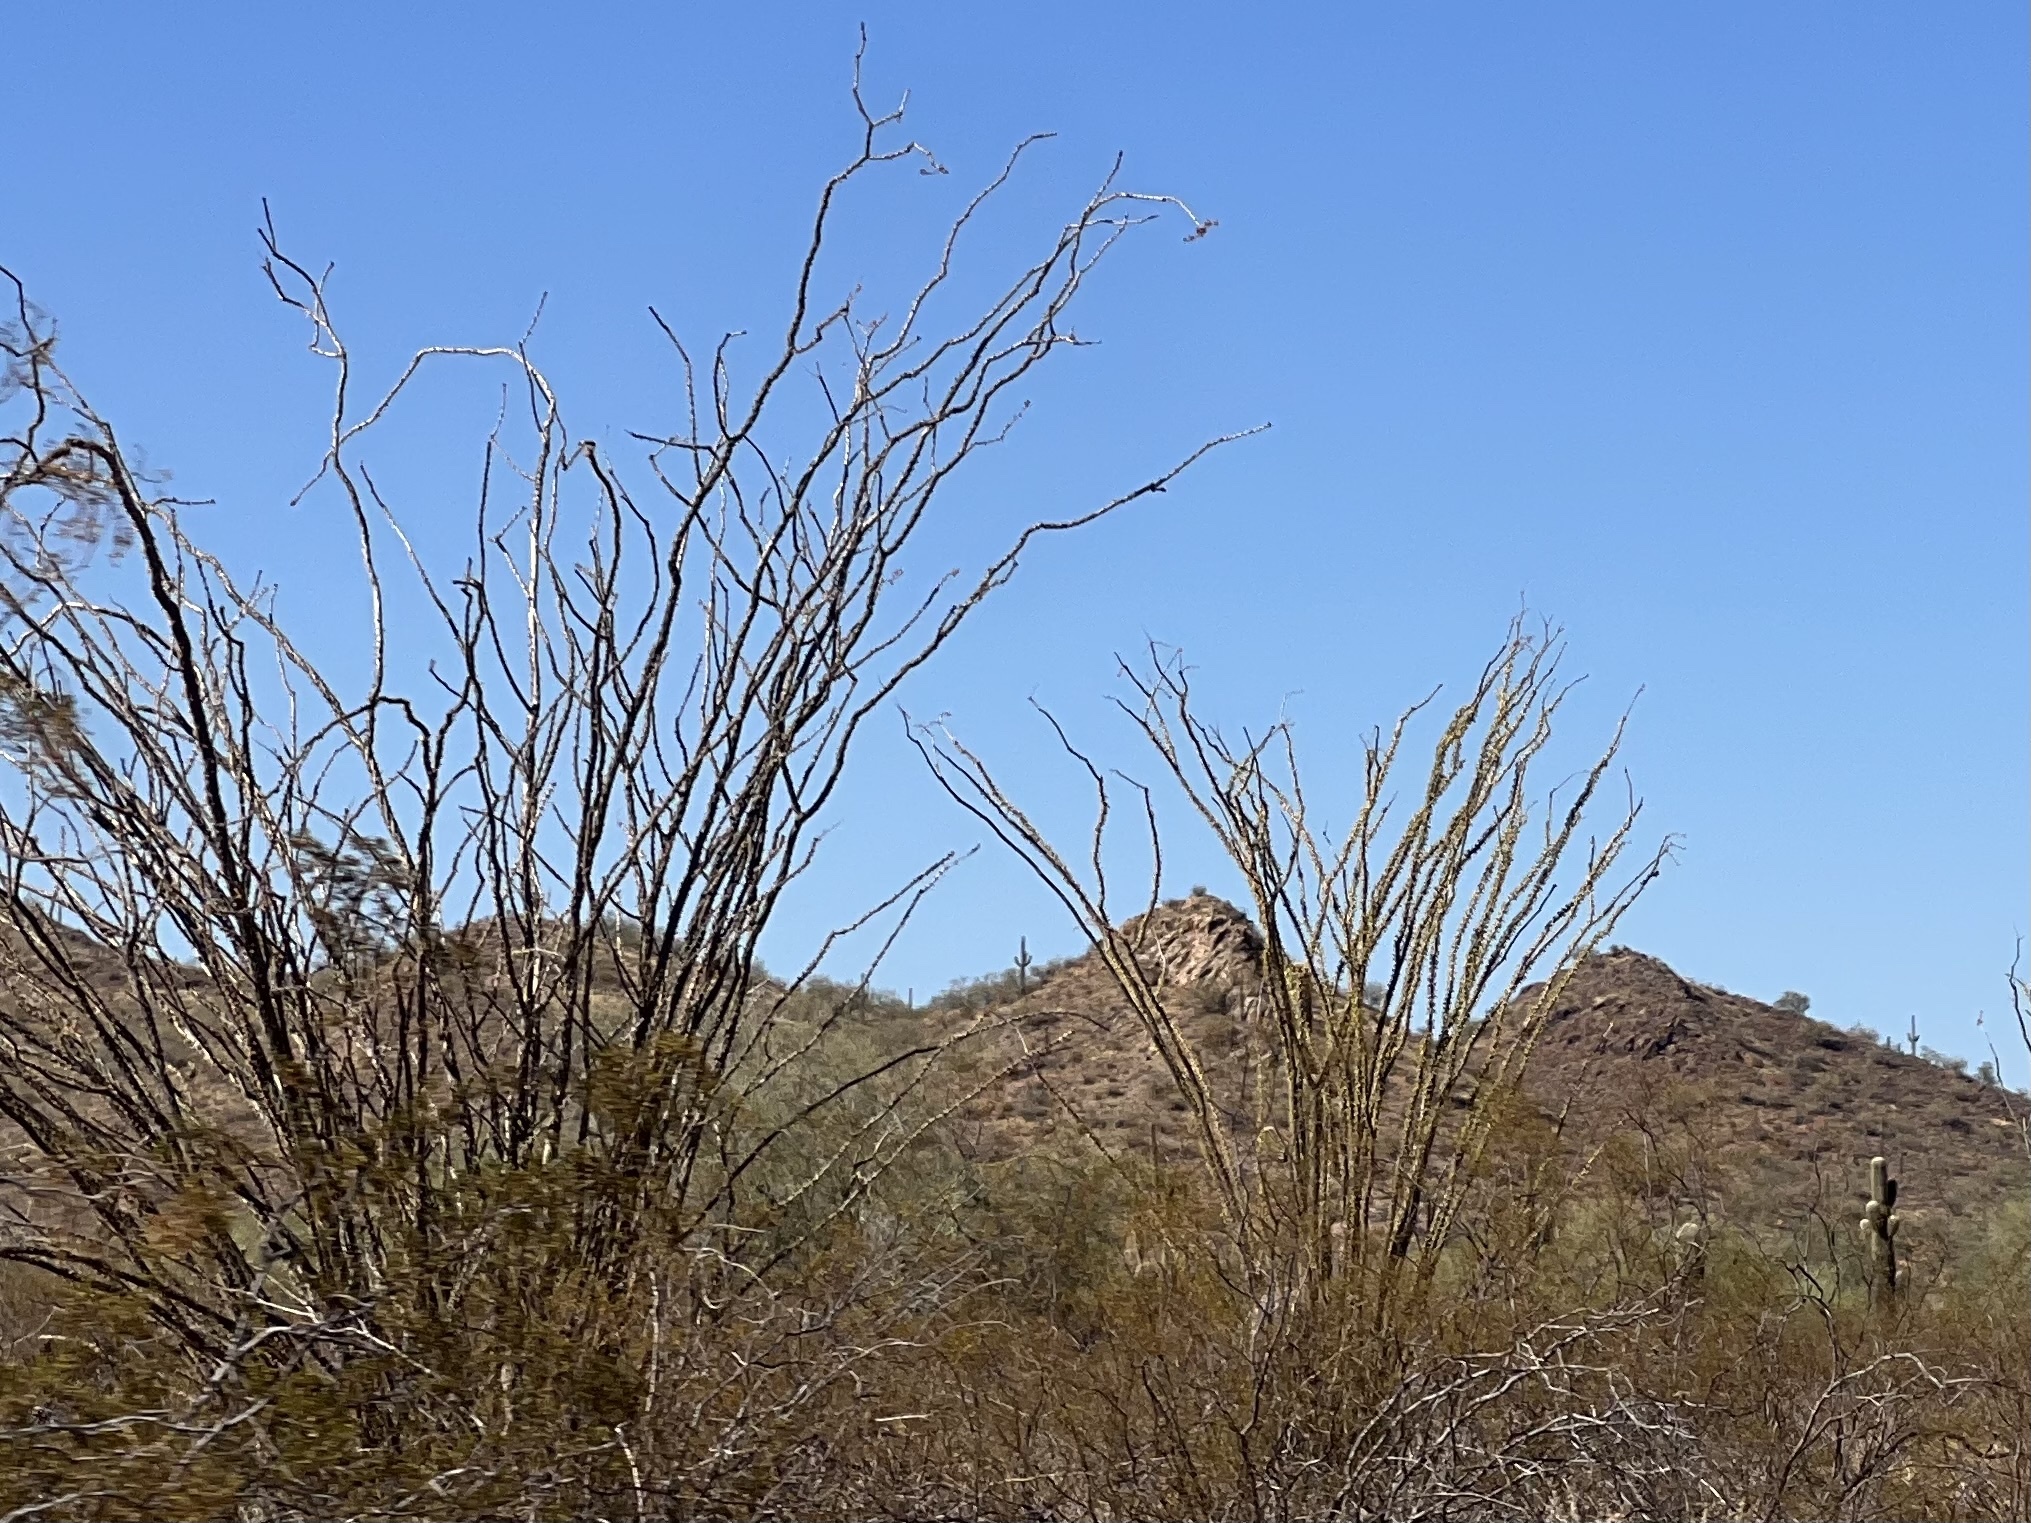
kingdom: Plantae
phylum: Tracheophyta
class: Magnoliopsida
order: Ericales
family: Fouquieriaceae
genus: Fouquieria
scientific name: Fouquieria splendens
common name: Vine-cactus
